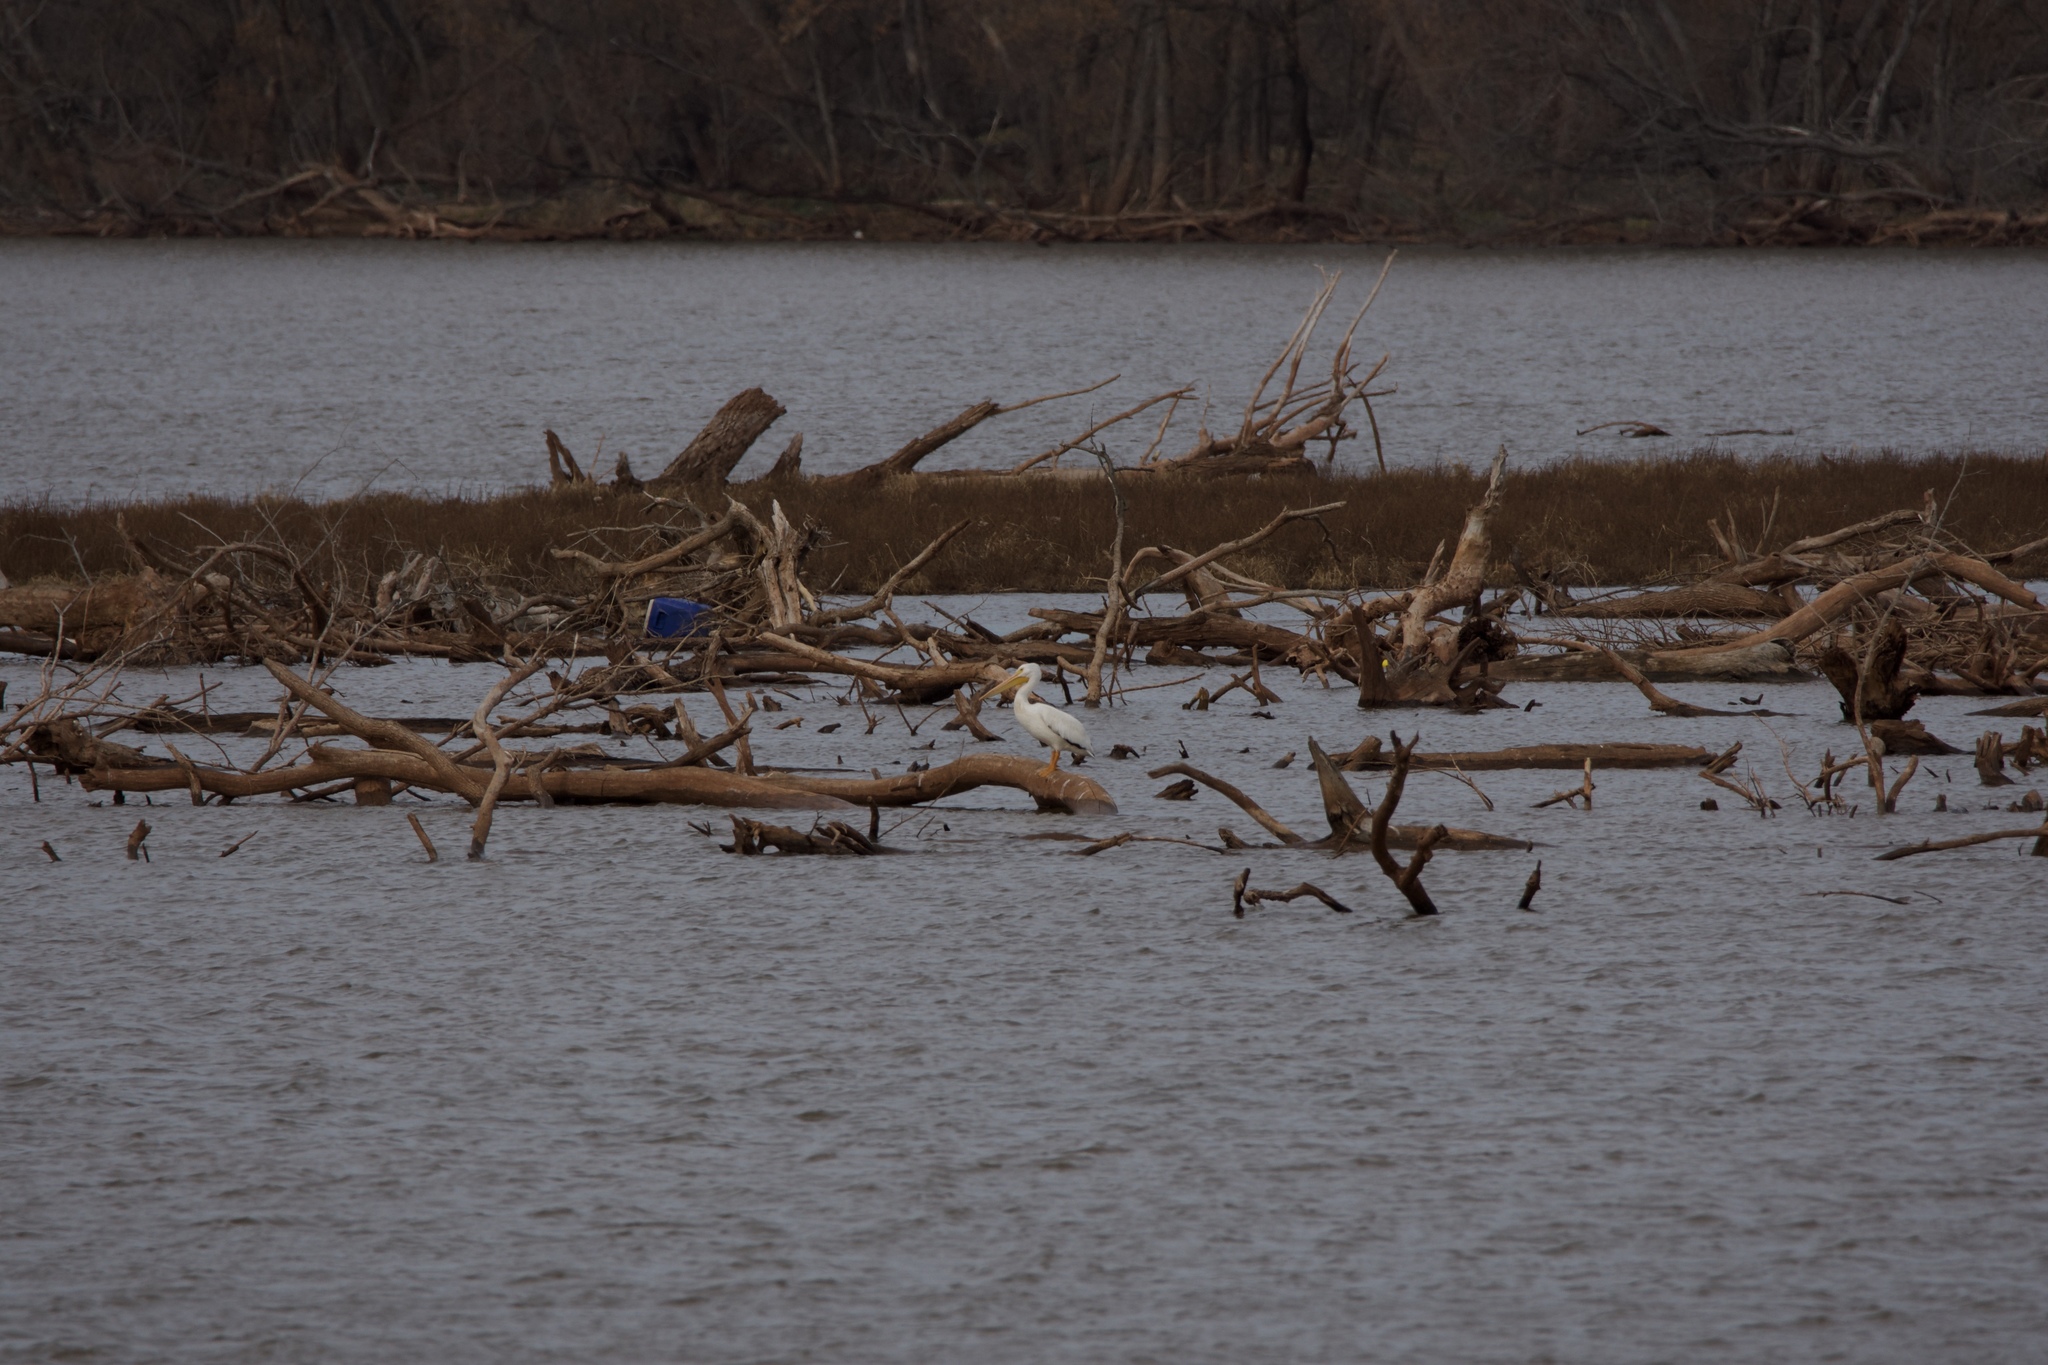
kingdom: Animalia
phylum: Chordata
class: Aves
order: Pelecaniformes
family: Pelecanidae
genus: Pelecanus
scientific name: Pelecanus erythrorhynchos
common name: American white pelican
